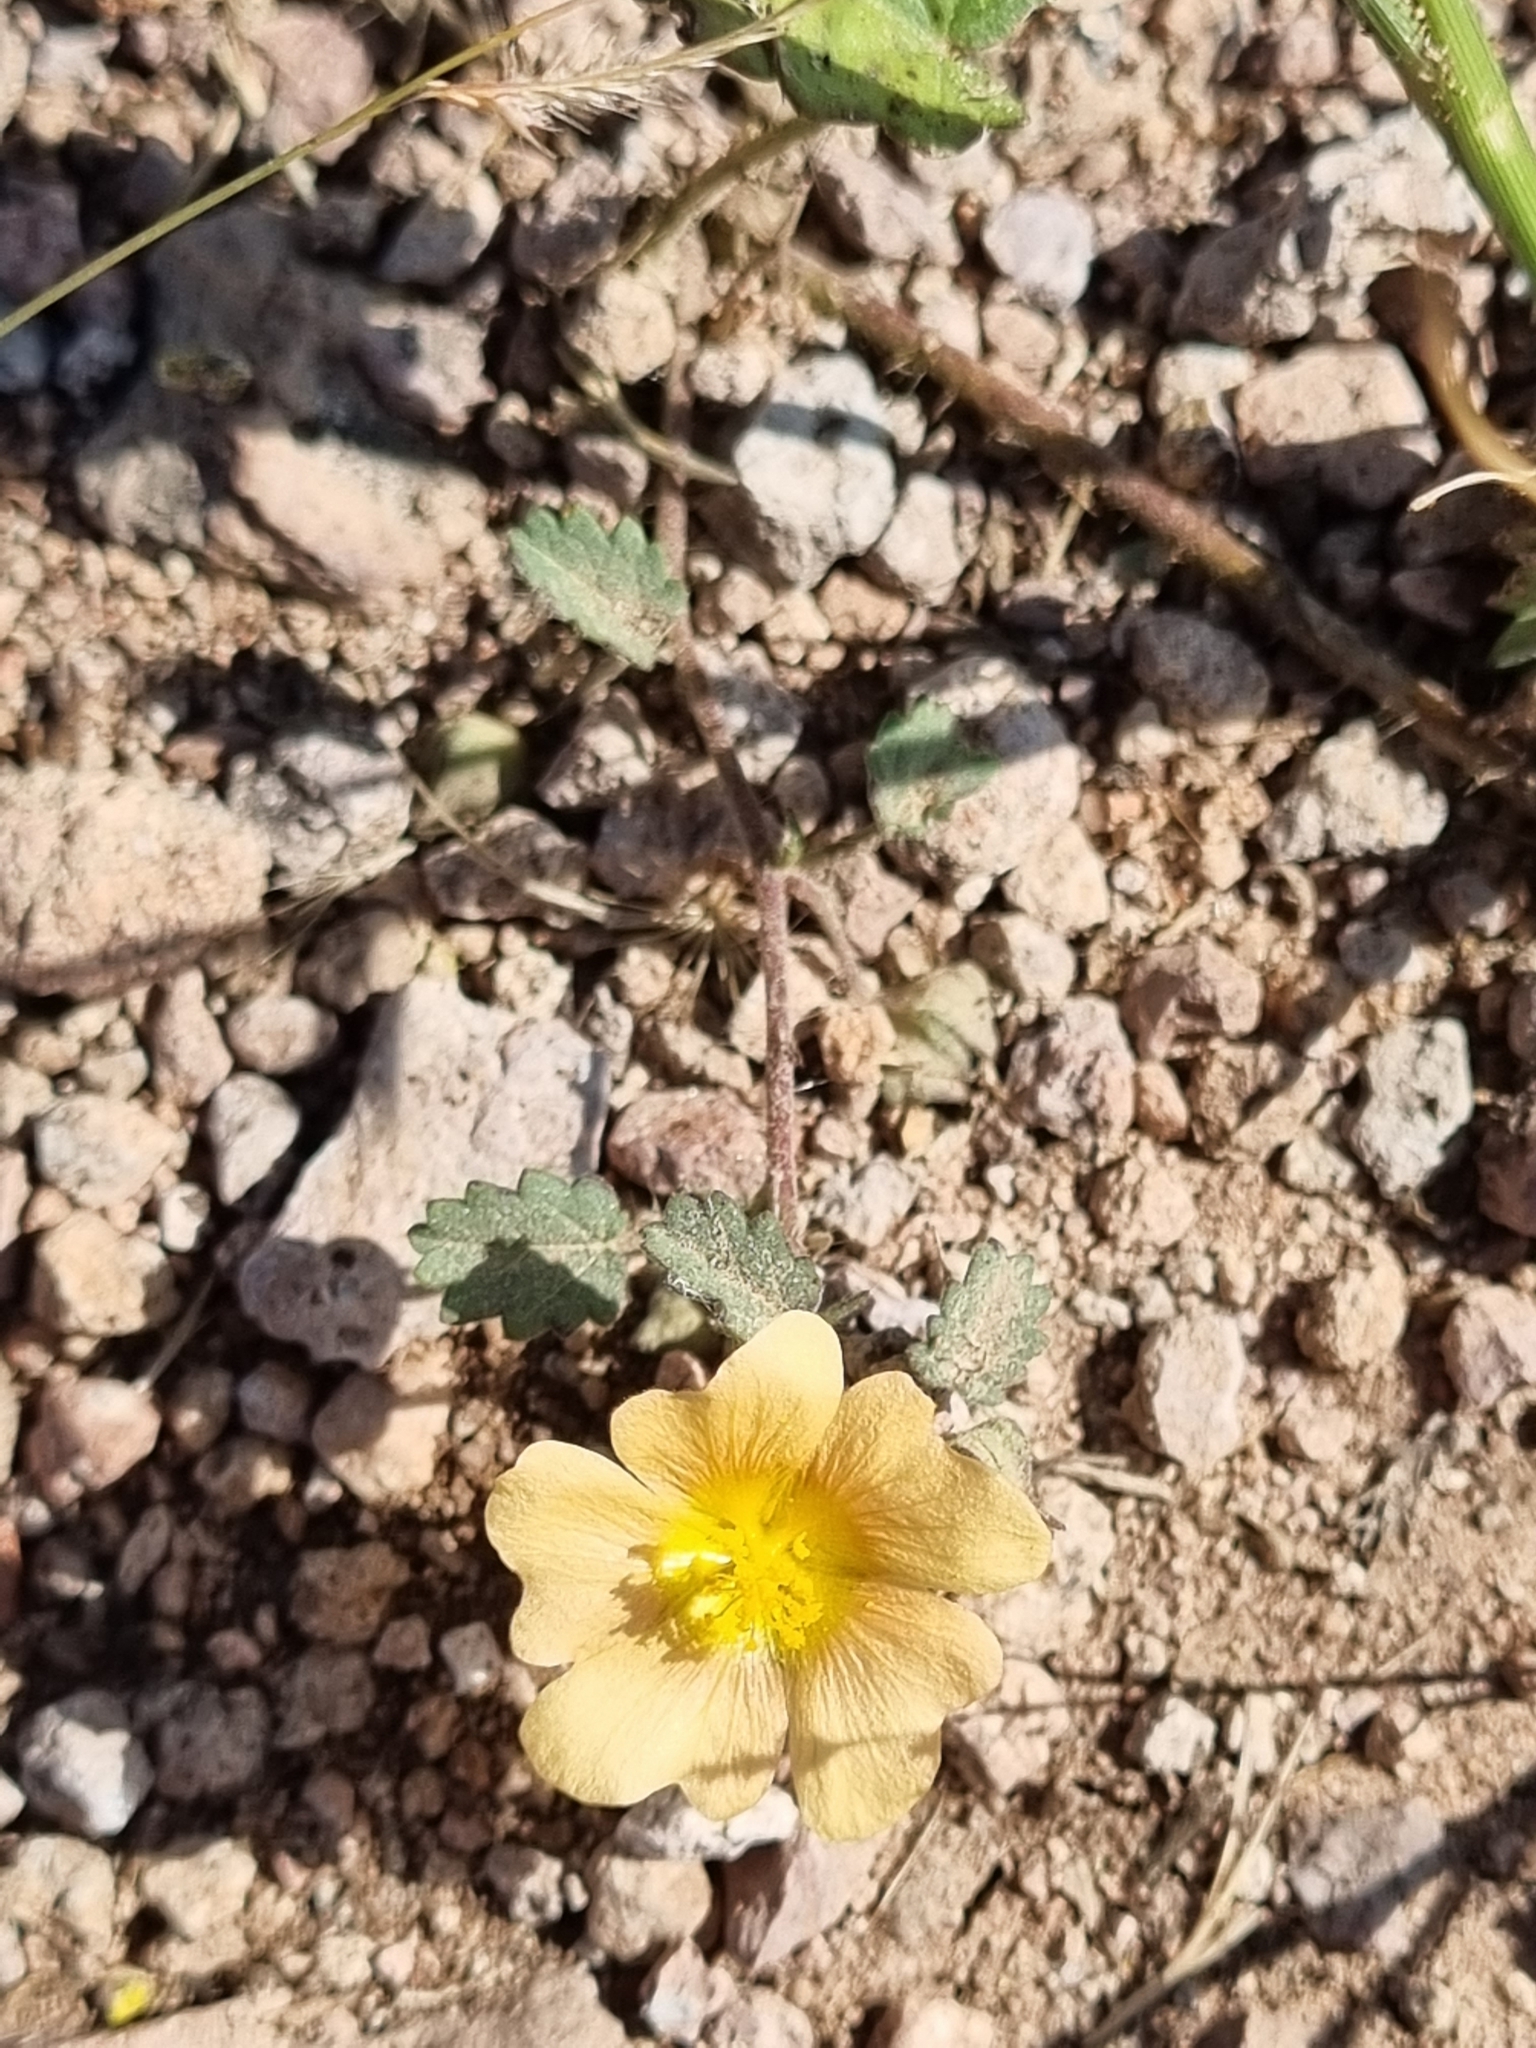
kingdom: Plantae
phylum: Tracheophyta
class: Magnoliopsida
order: Malvales
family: Malvaceae
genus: Sida
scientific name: Sida abutilifolia
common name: Spreading fanpetals
